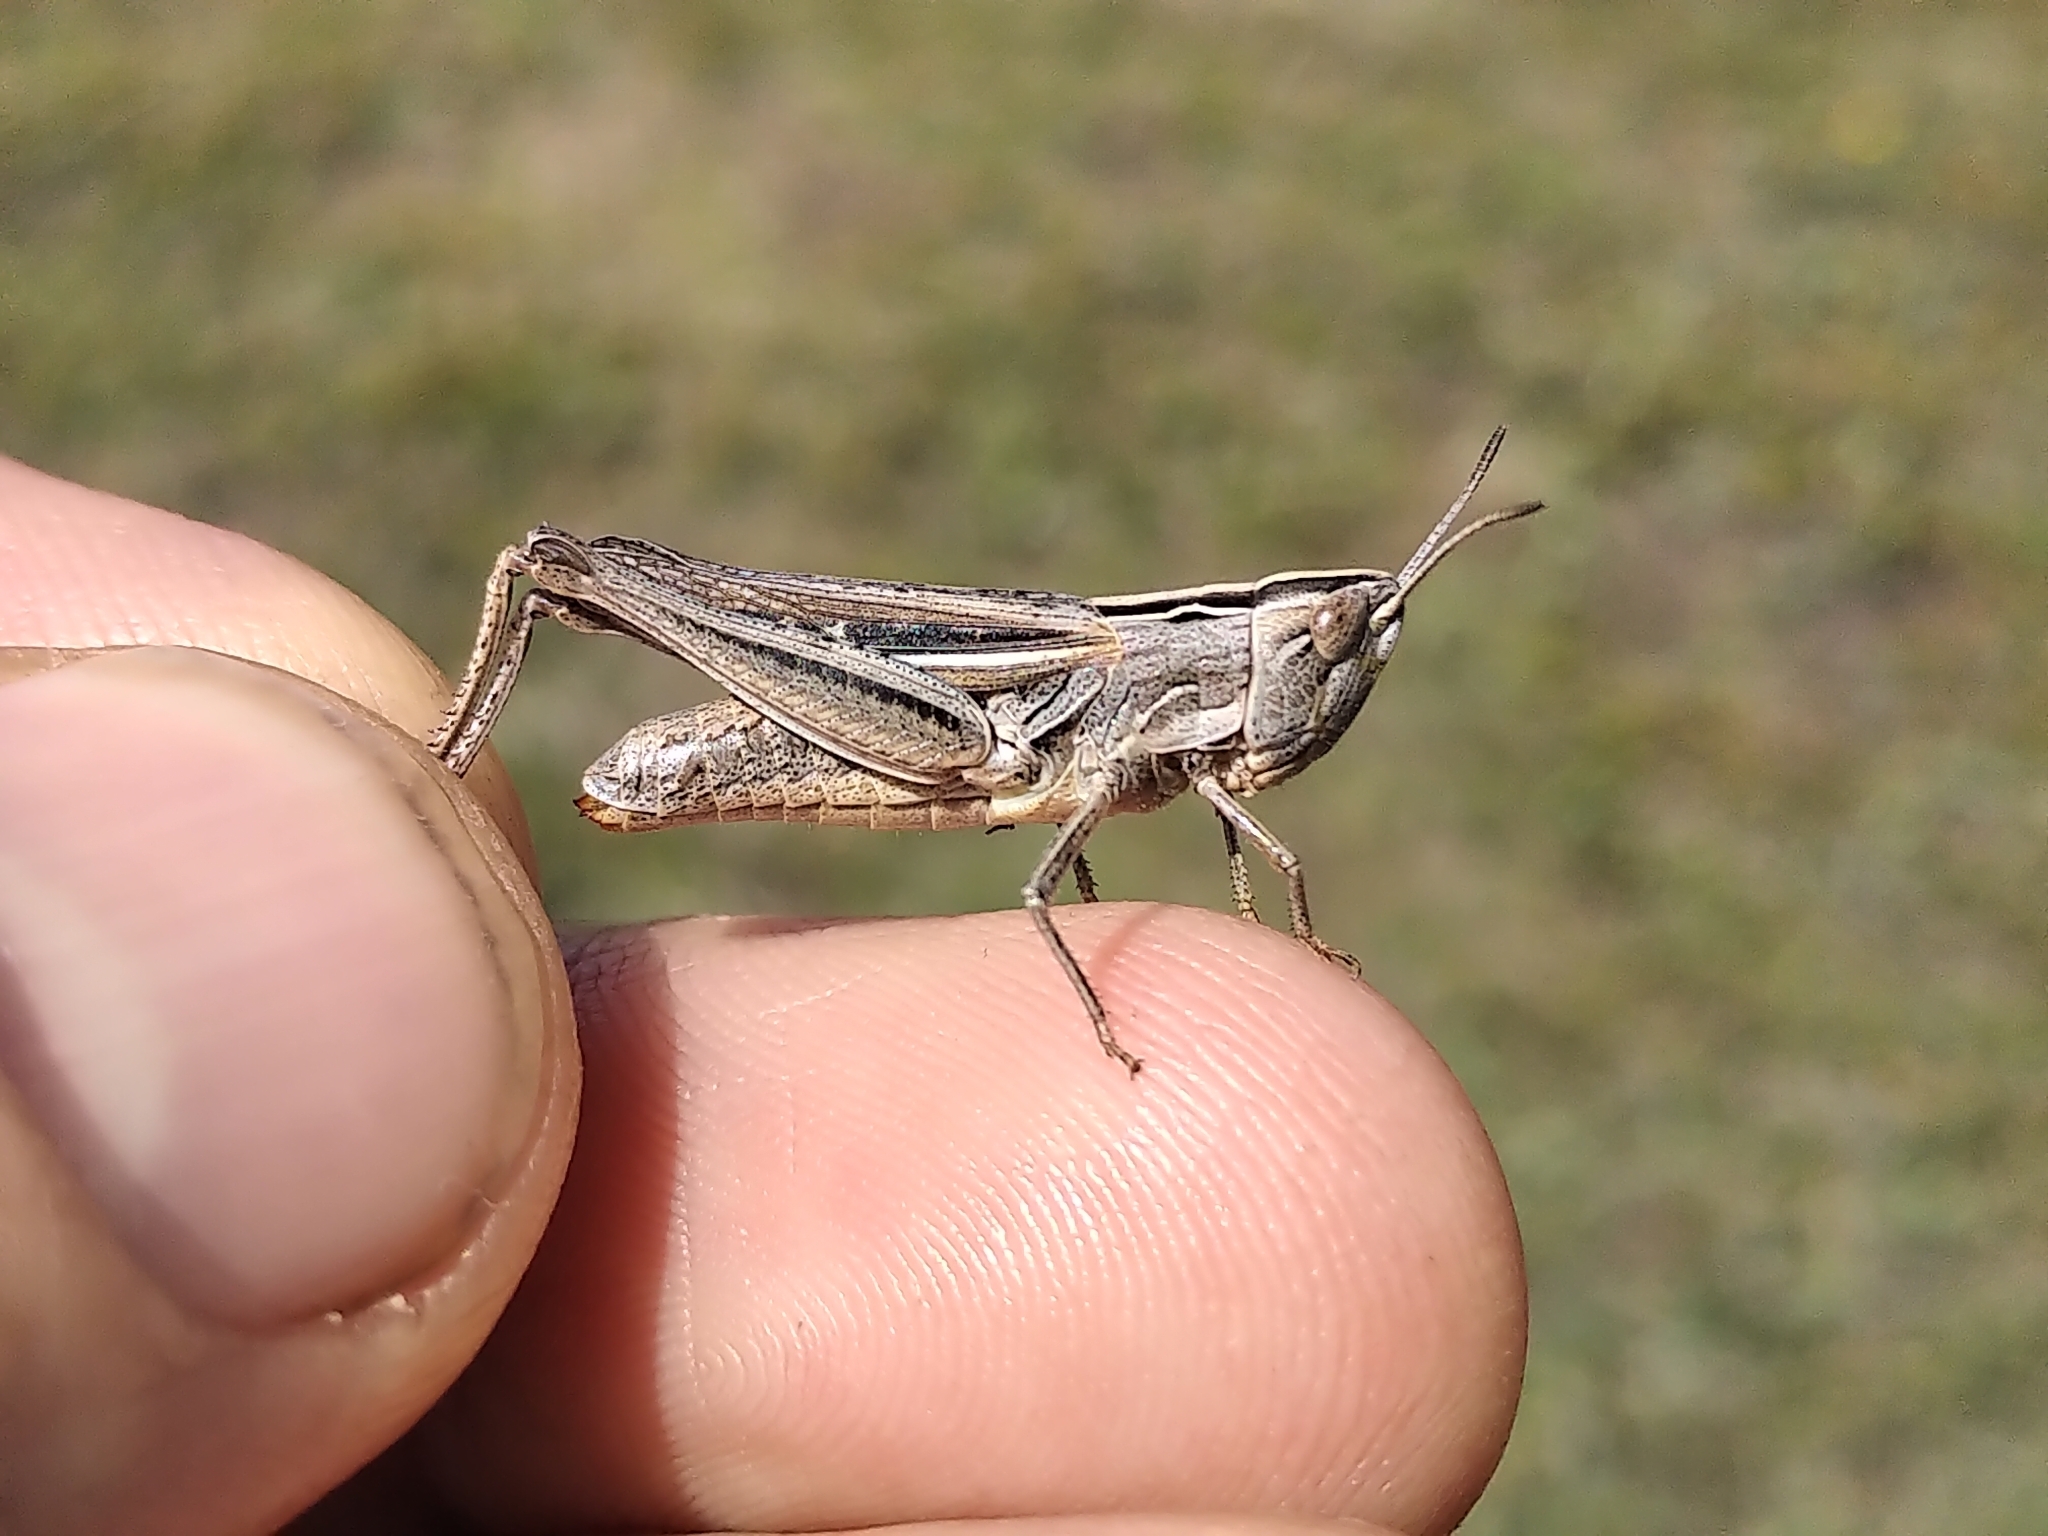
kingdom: Animalia
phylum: Arthropoda
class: Insecta
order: Orthoptera
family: Acrididae
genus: Eritettix
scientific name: Eritettix simplex
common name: Velvet-striped grasshopper
